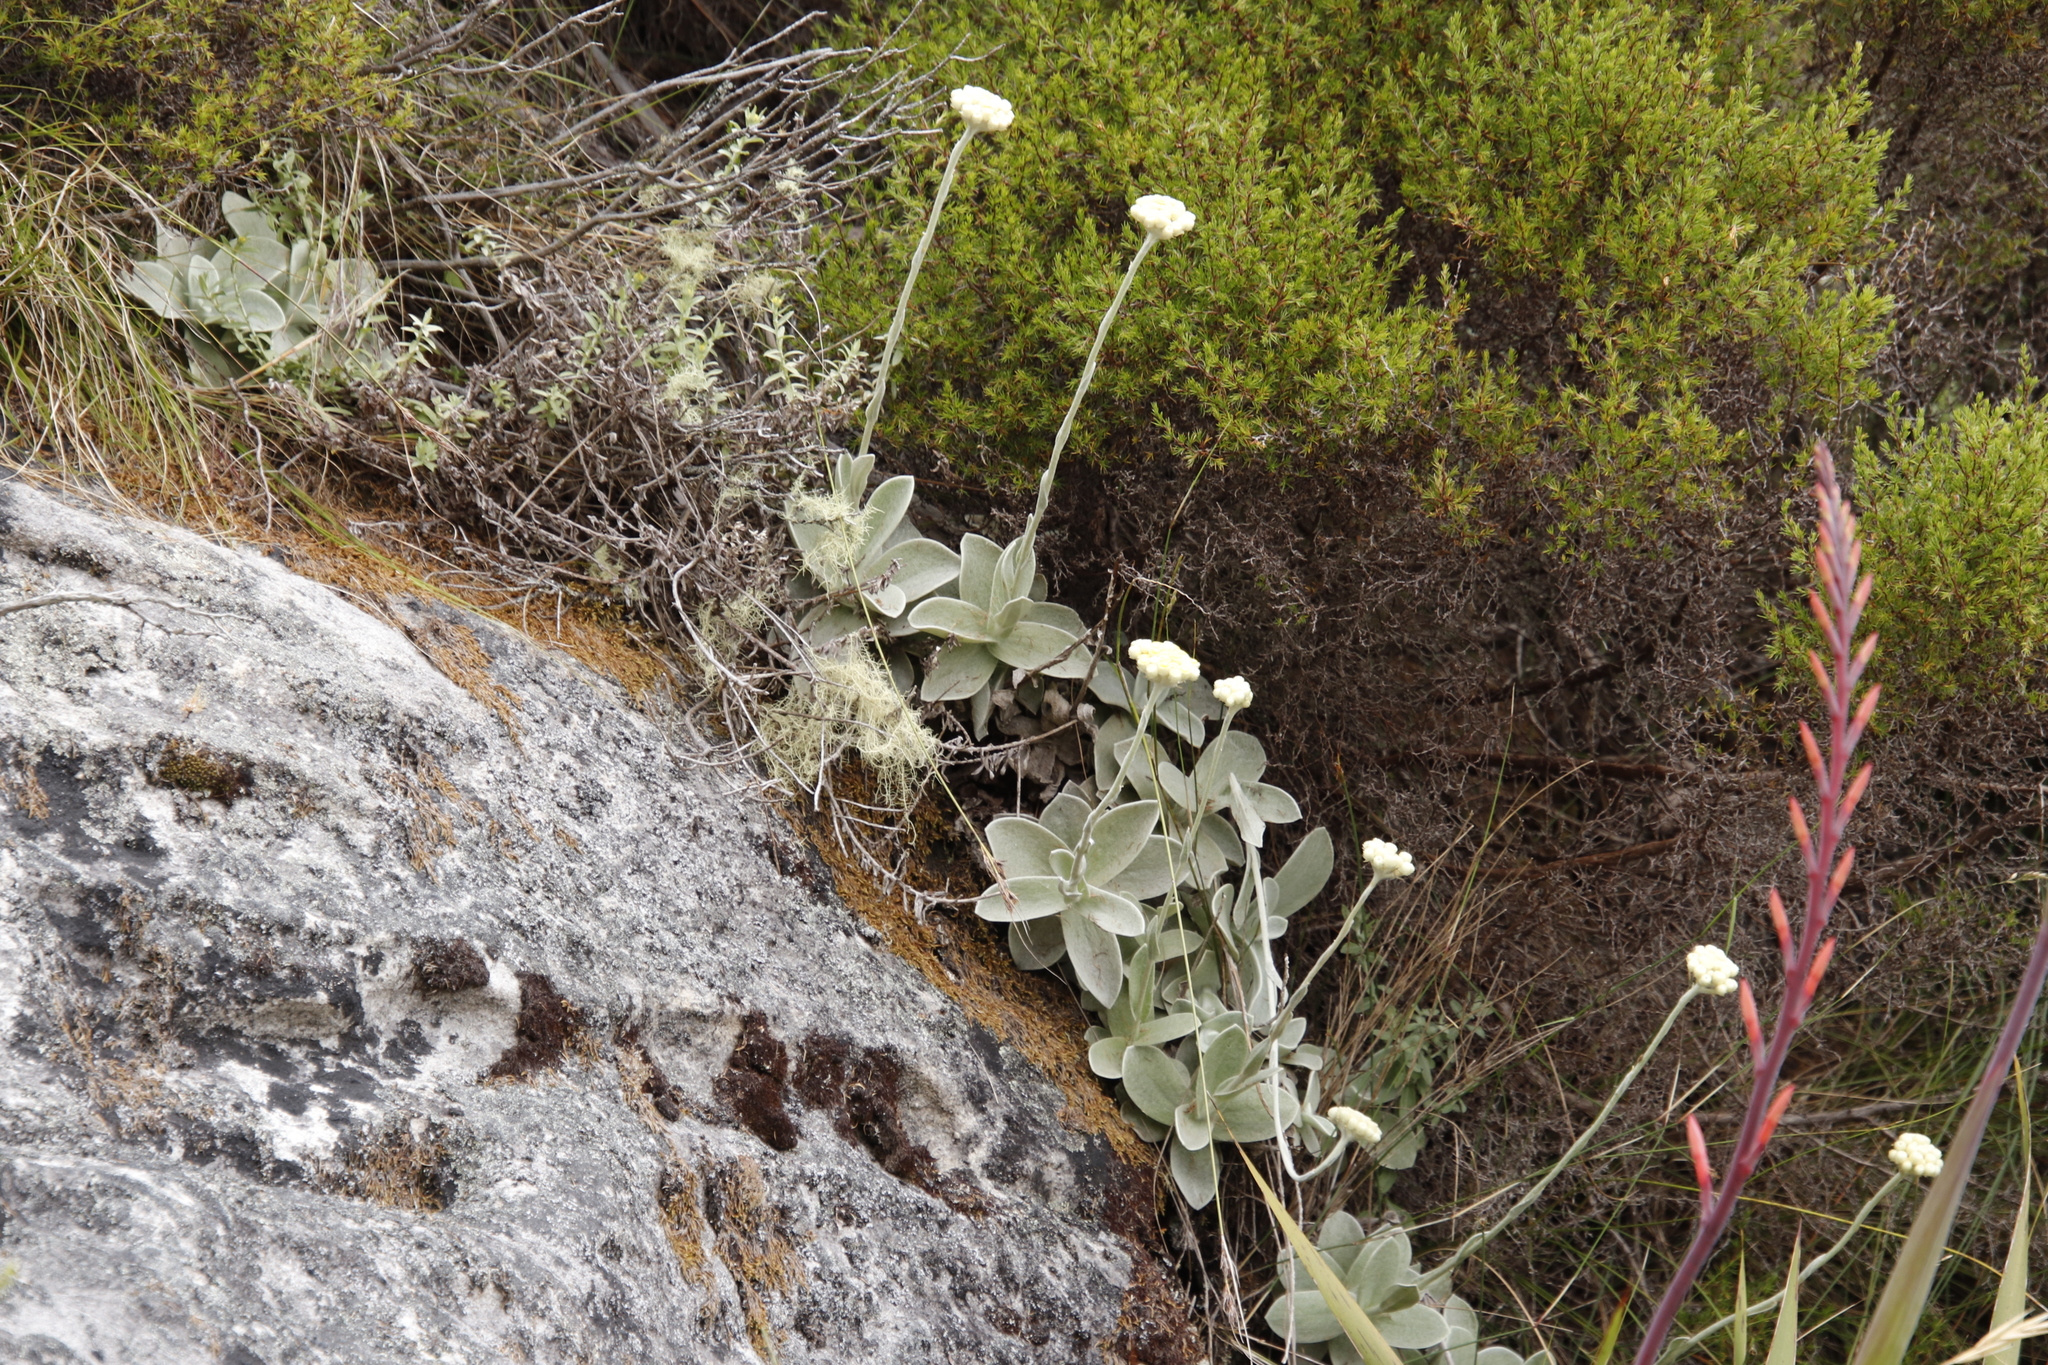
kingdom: Plantae
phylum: Tracheophyta
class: Magnoliopsida
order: Asterales
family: Asteraceae
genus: Helichrysum
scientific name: Helichrysum grandiflorum
